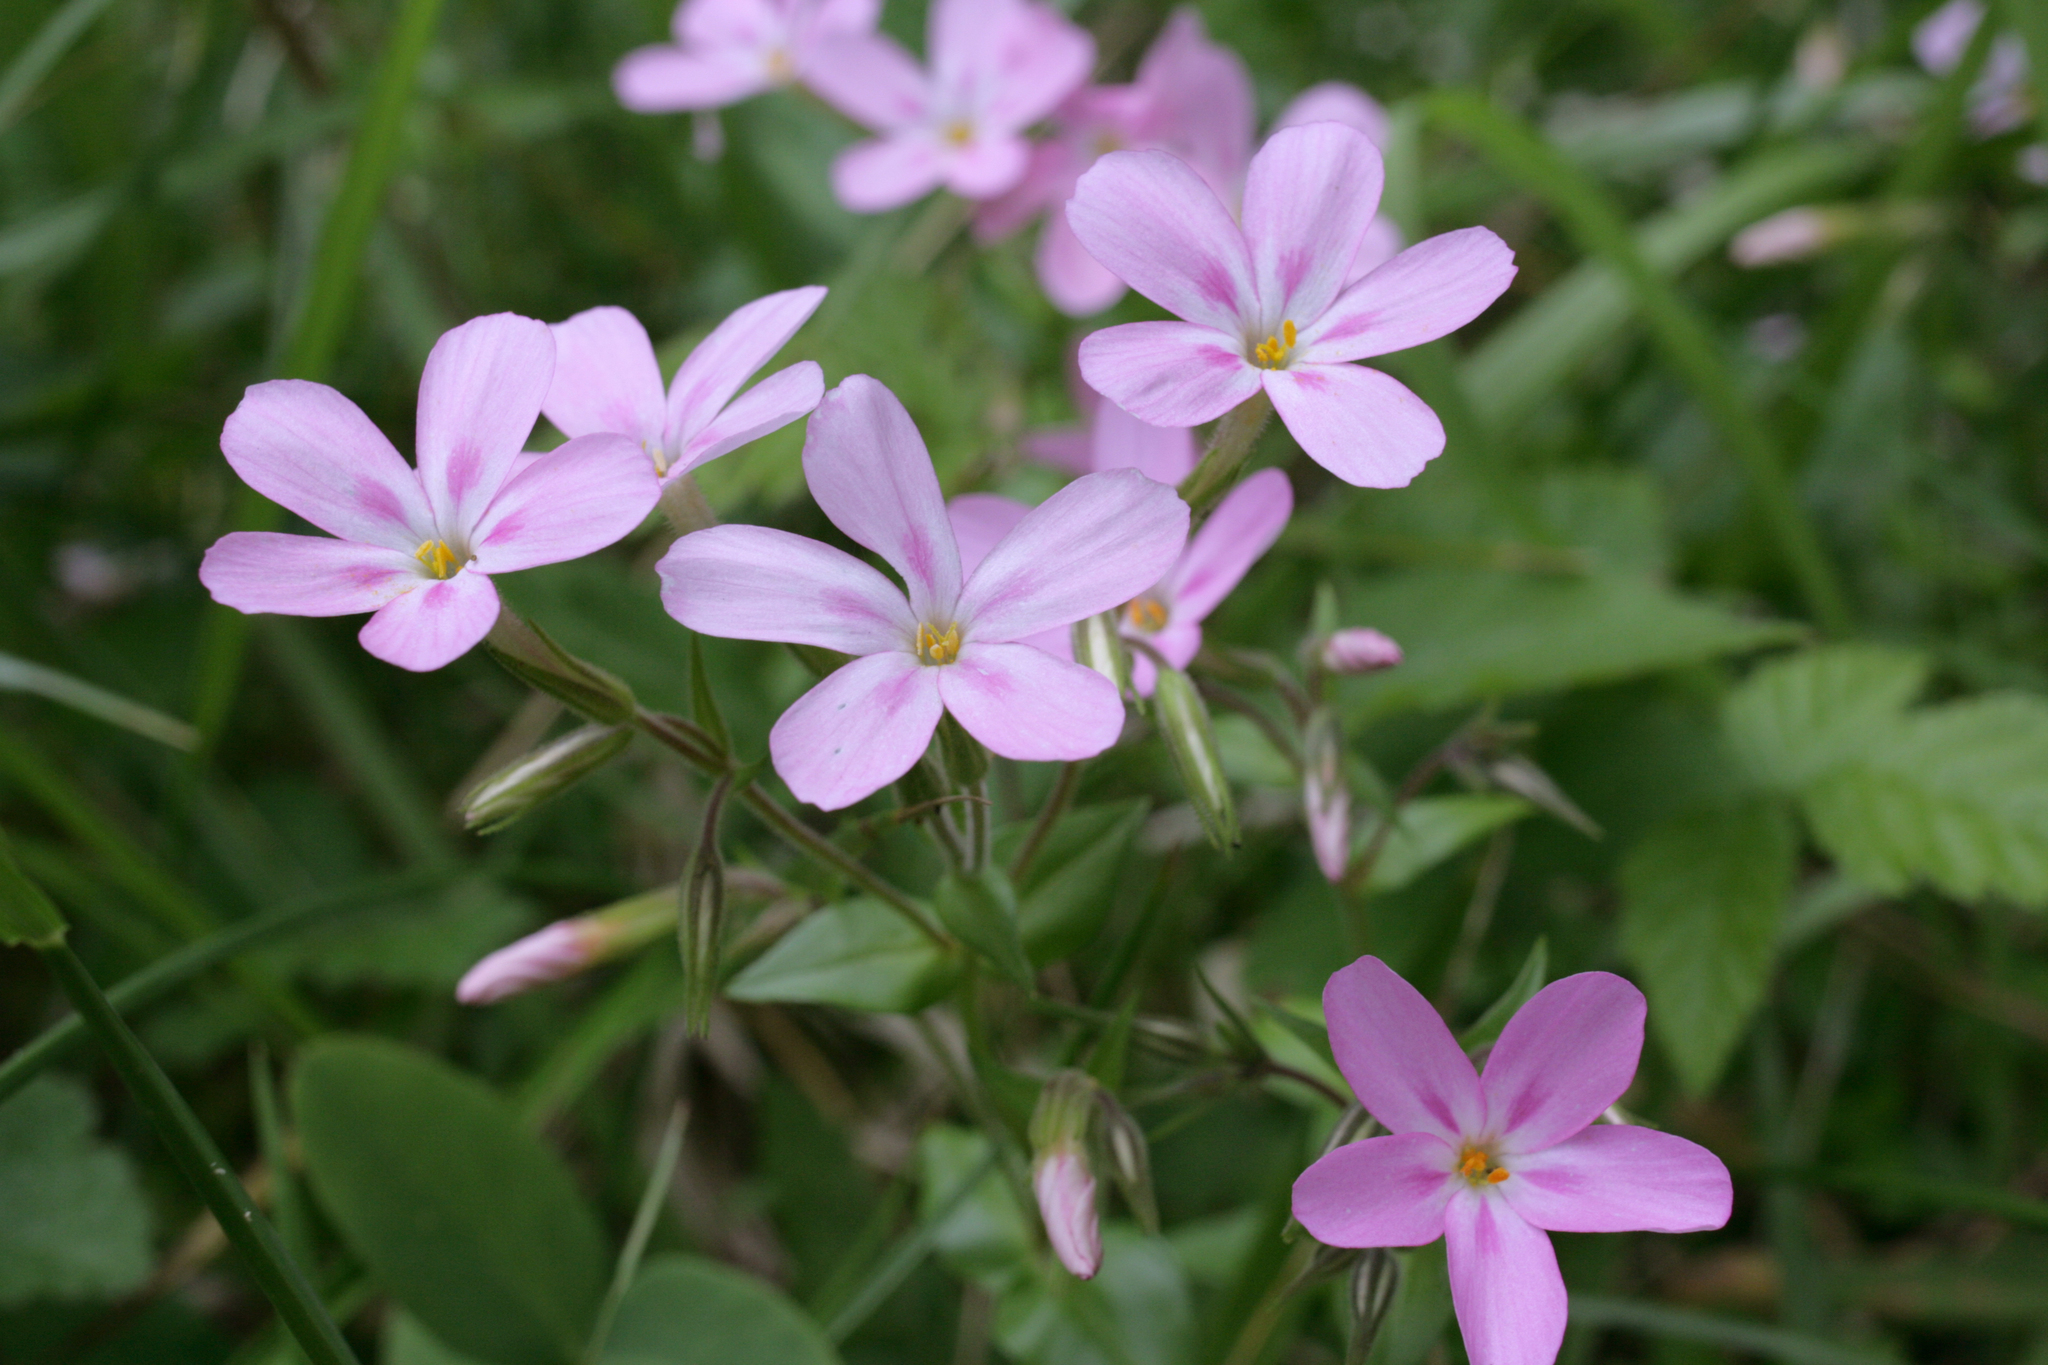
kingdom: Plantae
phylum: Tracheophyta
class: Magnoliopsida
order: Ericales
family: Polemoniaceae
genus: Phlox
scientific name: Phlox adsurgens
